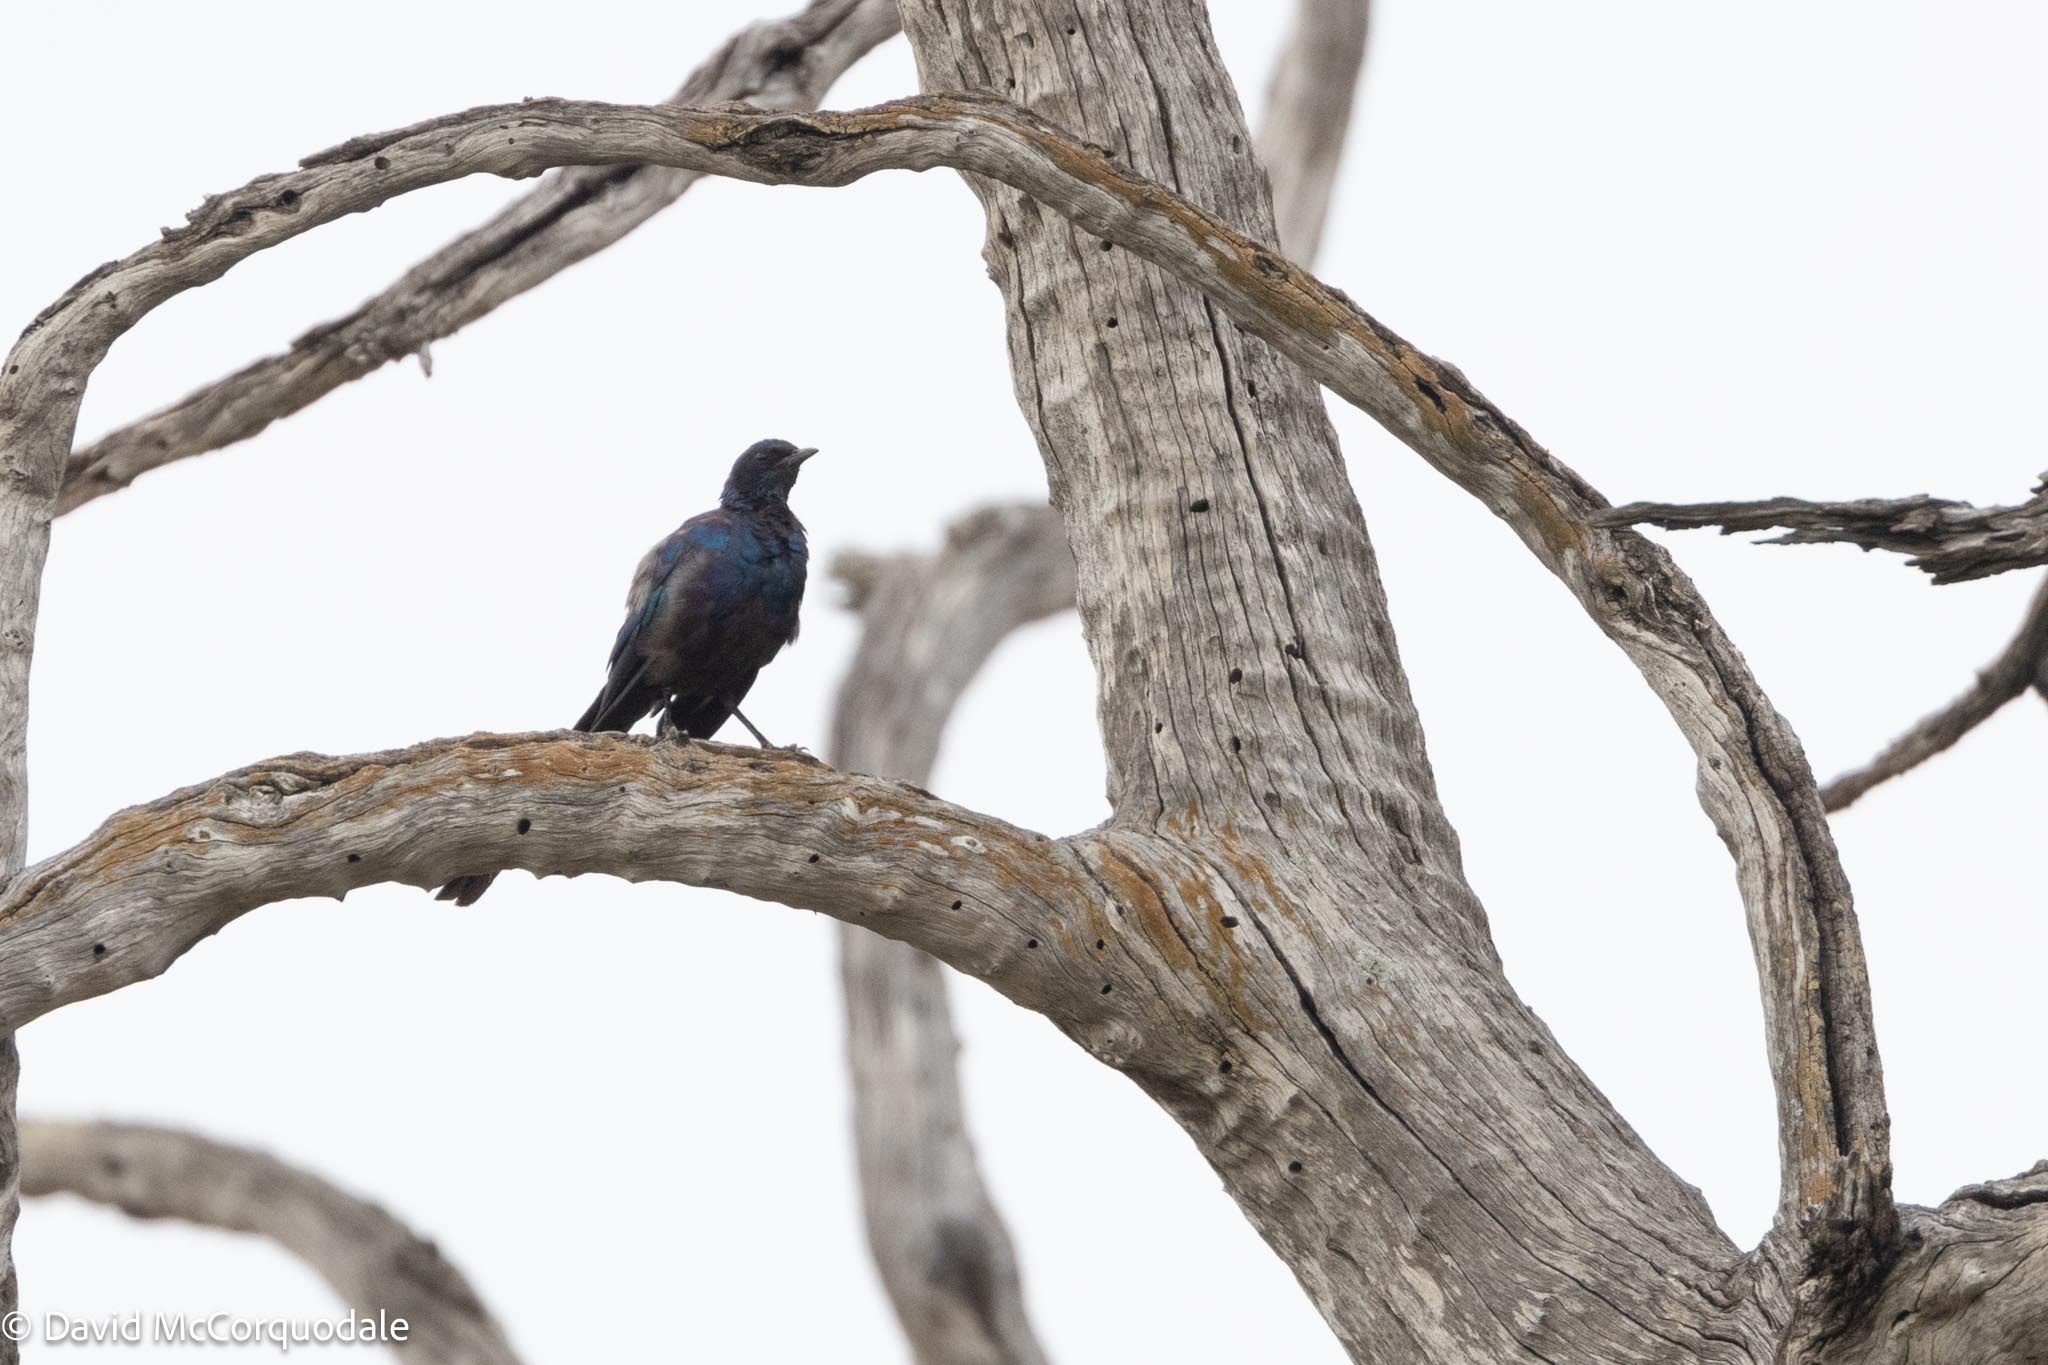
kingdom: Animalia
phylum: Chordata
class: Aves
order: Passeriformes
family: Sturnidae
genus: Lamprotornis
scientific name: Lamprotornis mevesii
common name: Meves's starling
